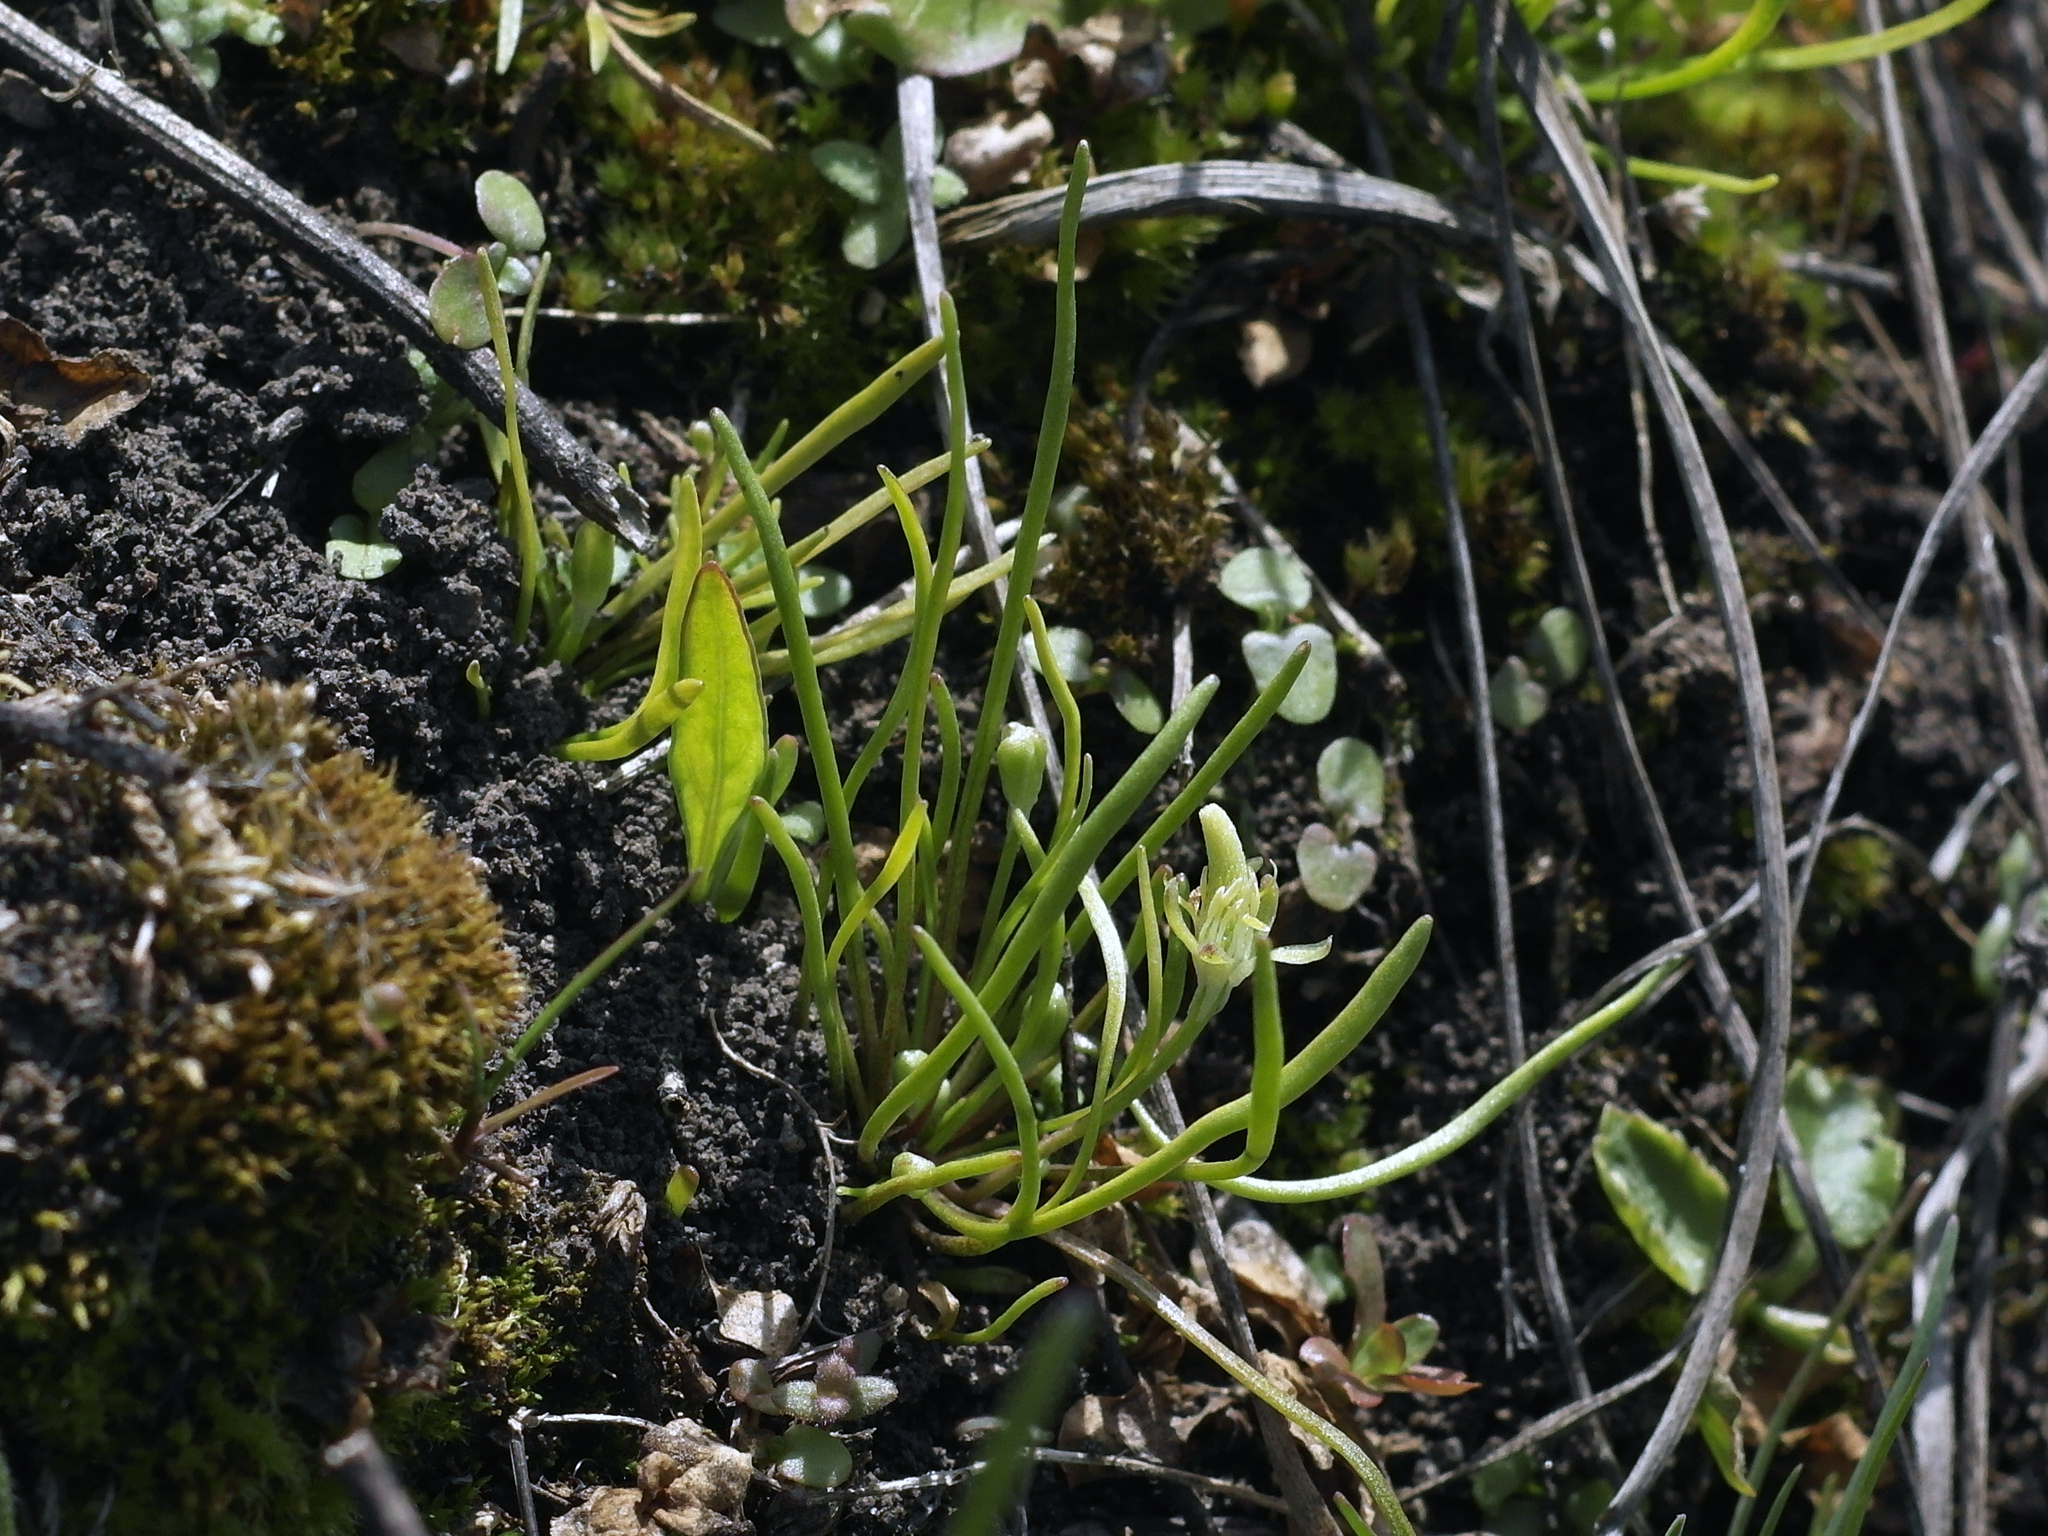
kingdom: Plantae
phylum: Tracheophyta
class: Magnoliopsida
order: Ranunculales
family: Ranunculaceae
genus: Myosurus
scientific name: Myosurus minimus
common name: Mousetail
